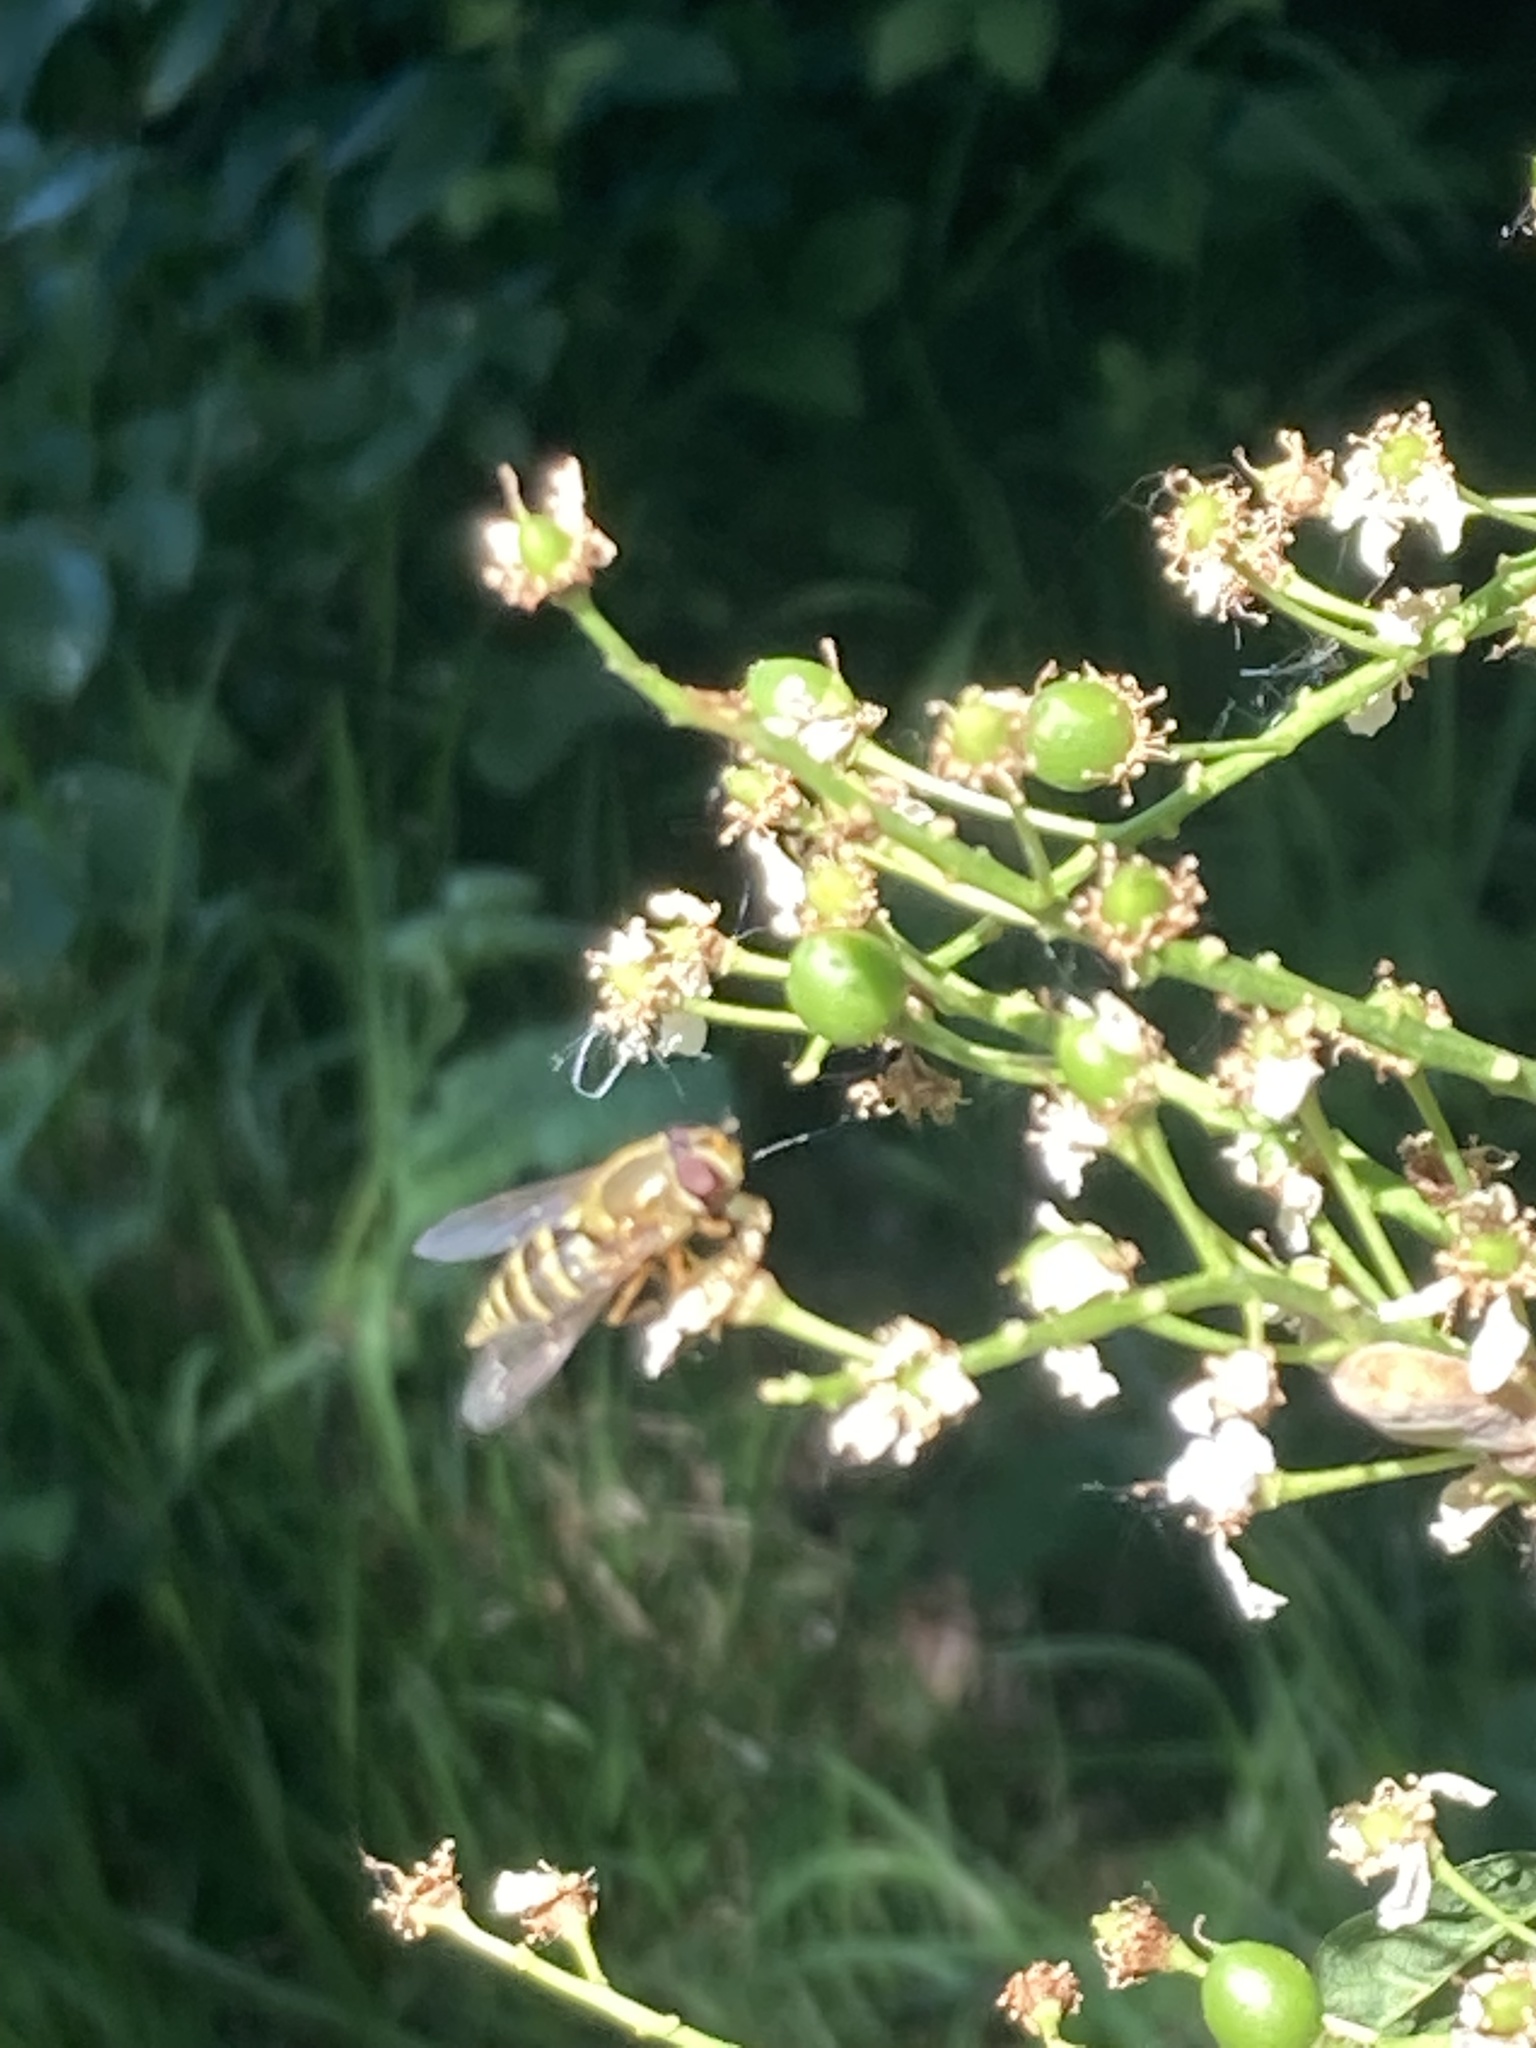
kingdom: Animalia
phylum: Arthropoda
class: Insecta
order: Diptera
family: Syrphidae
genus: Syrphus
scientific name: Syrphus ribesii
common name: Common flower fly
